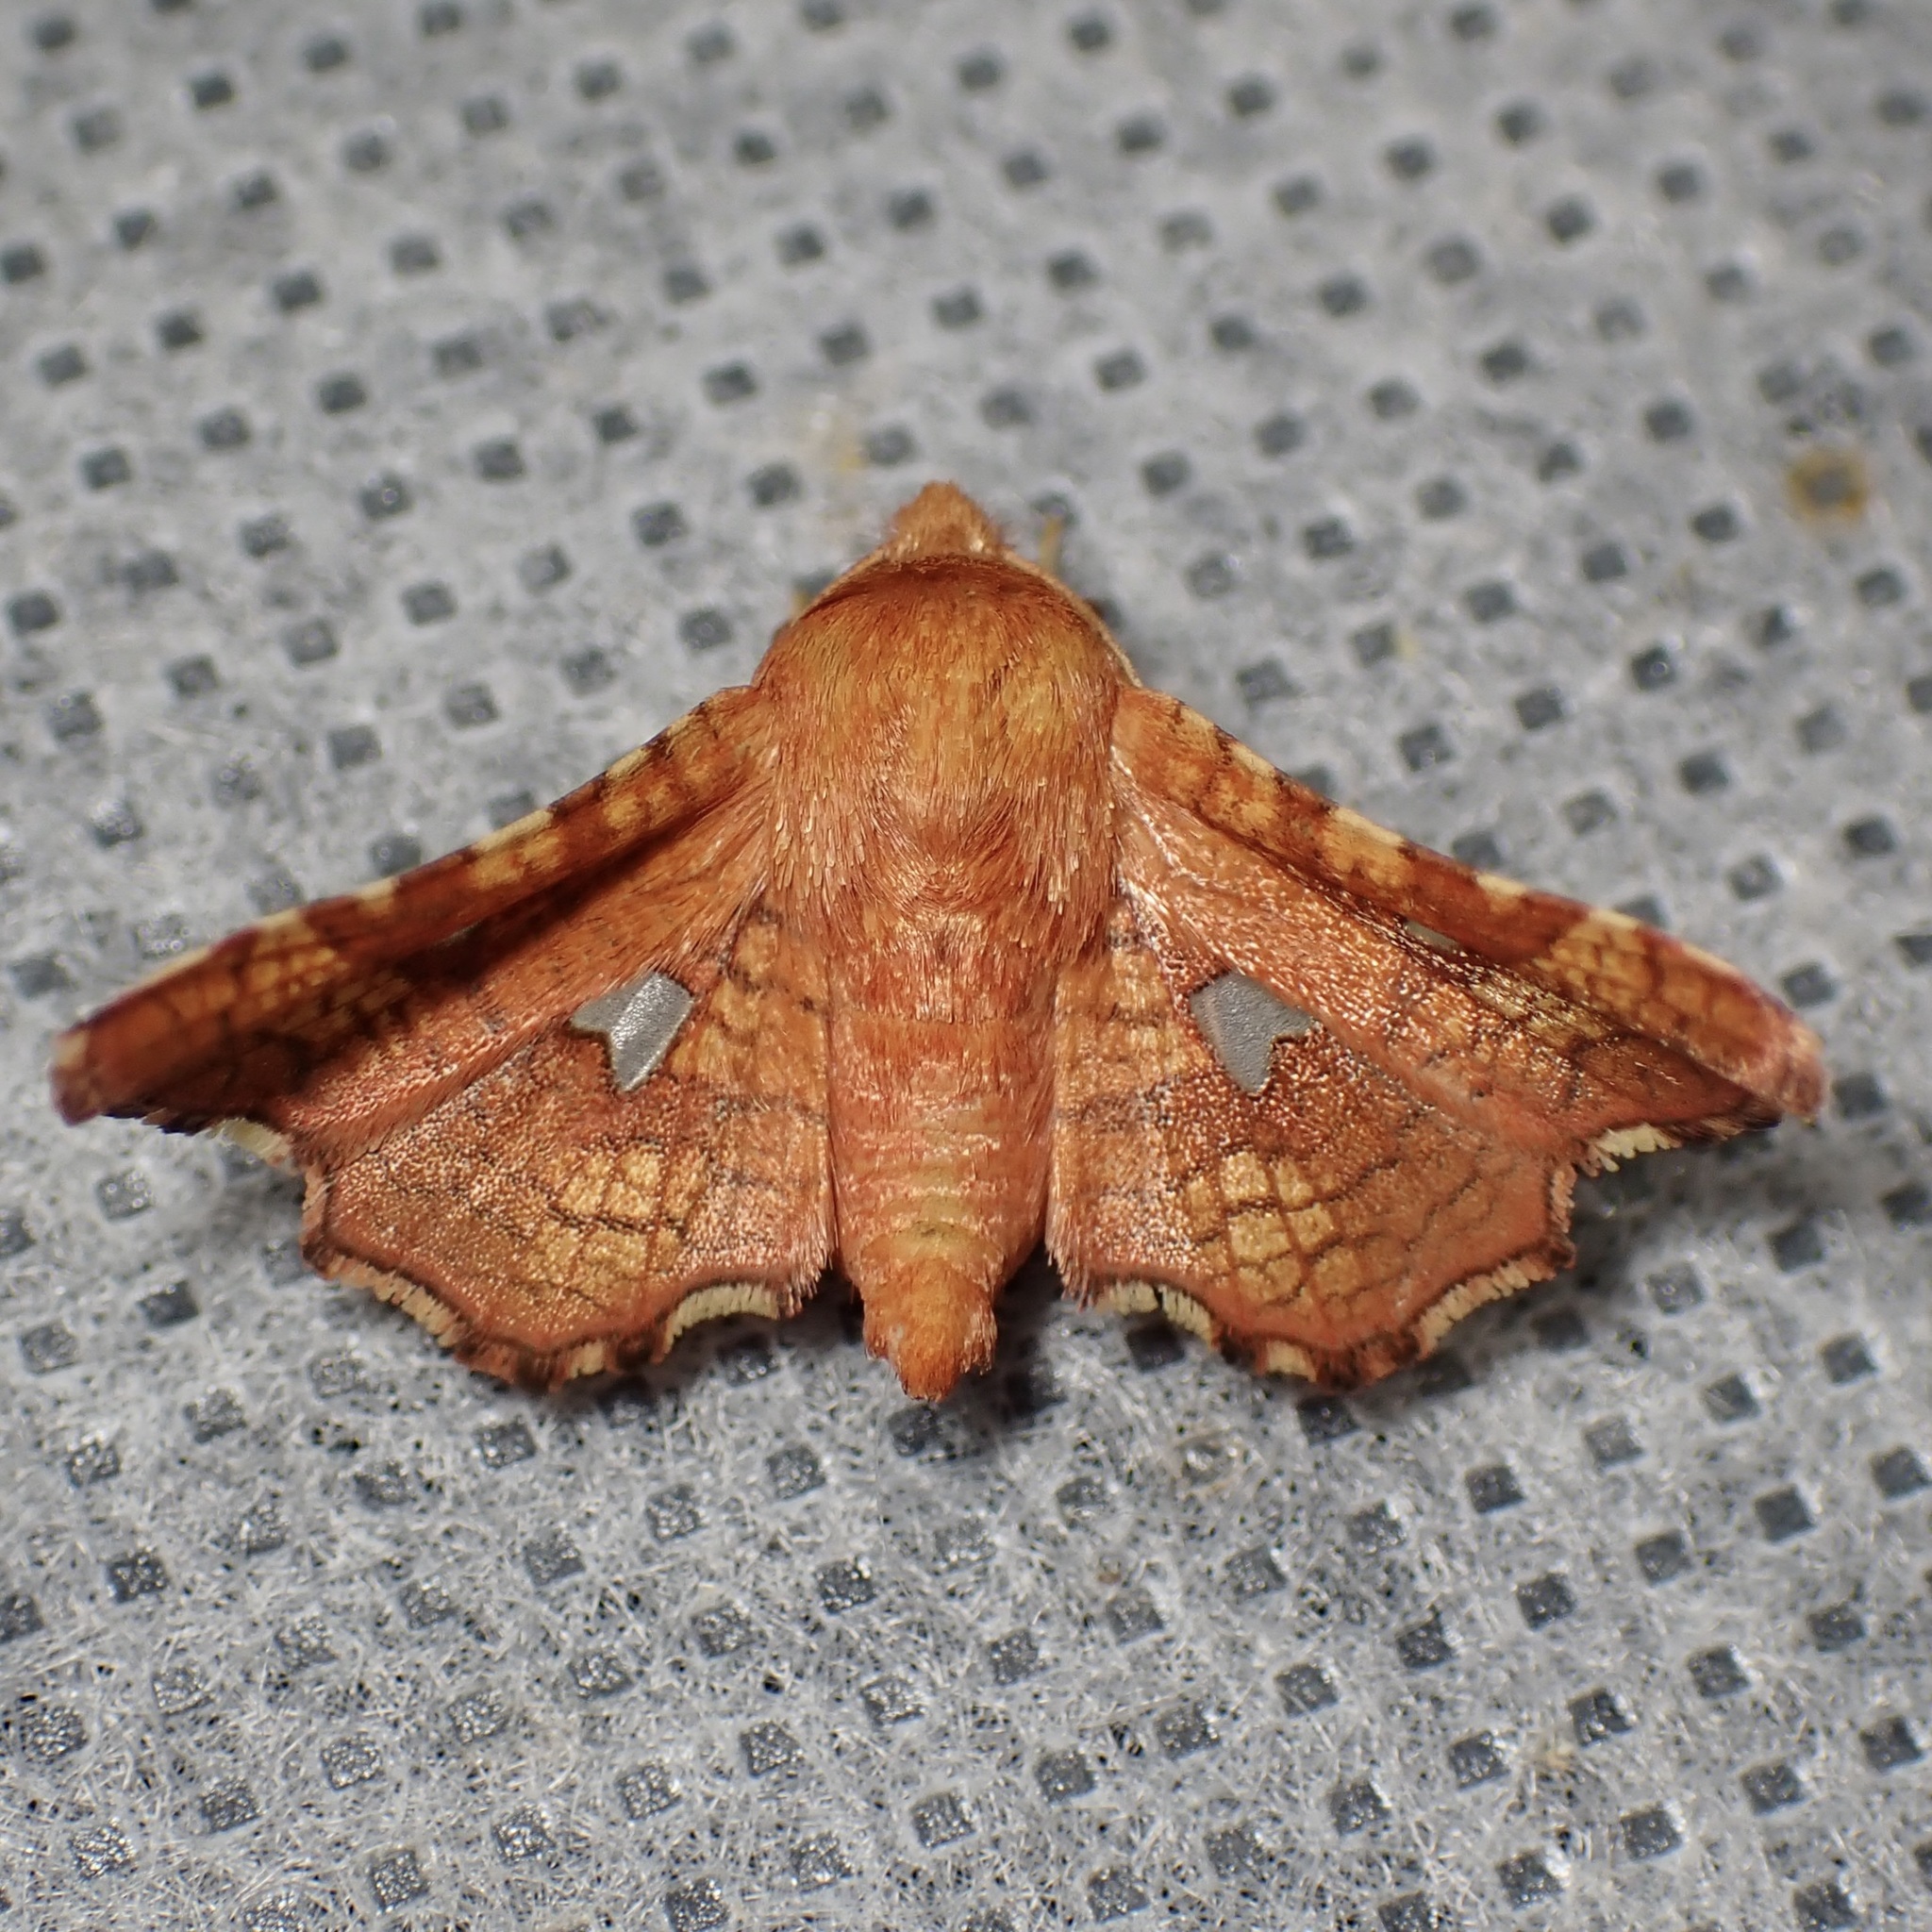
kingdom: Animalia
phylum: Arthropoda
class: Insecta
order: Lepidoptera
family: Thyrididae
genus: Dysodia
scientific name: Dysodia granulata
